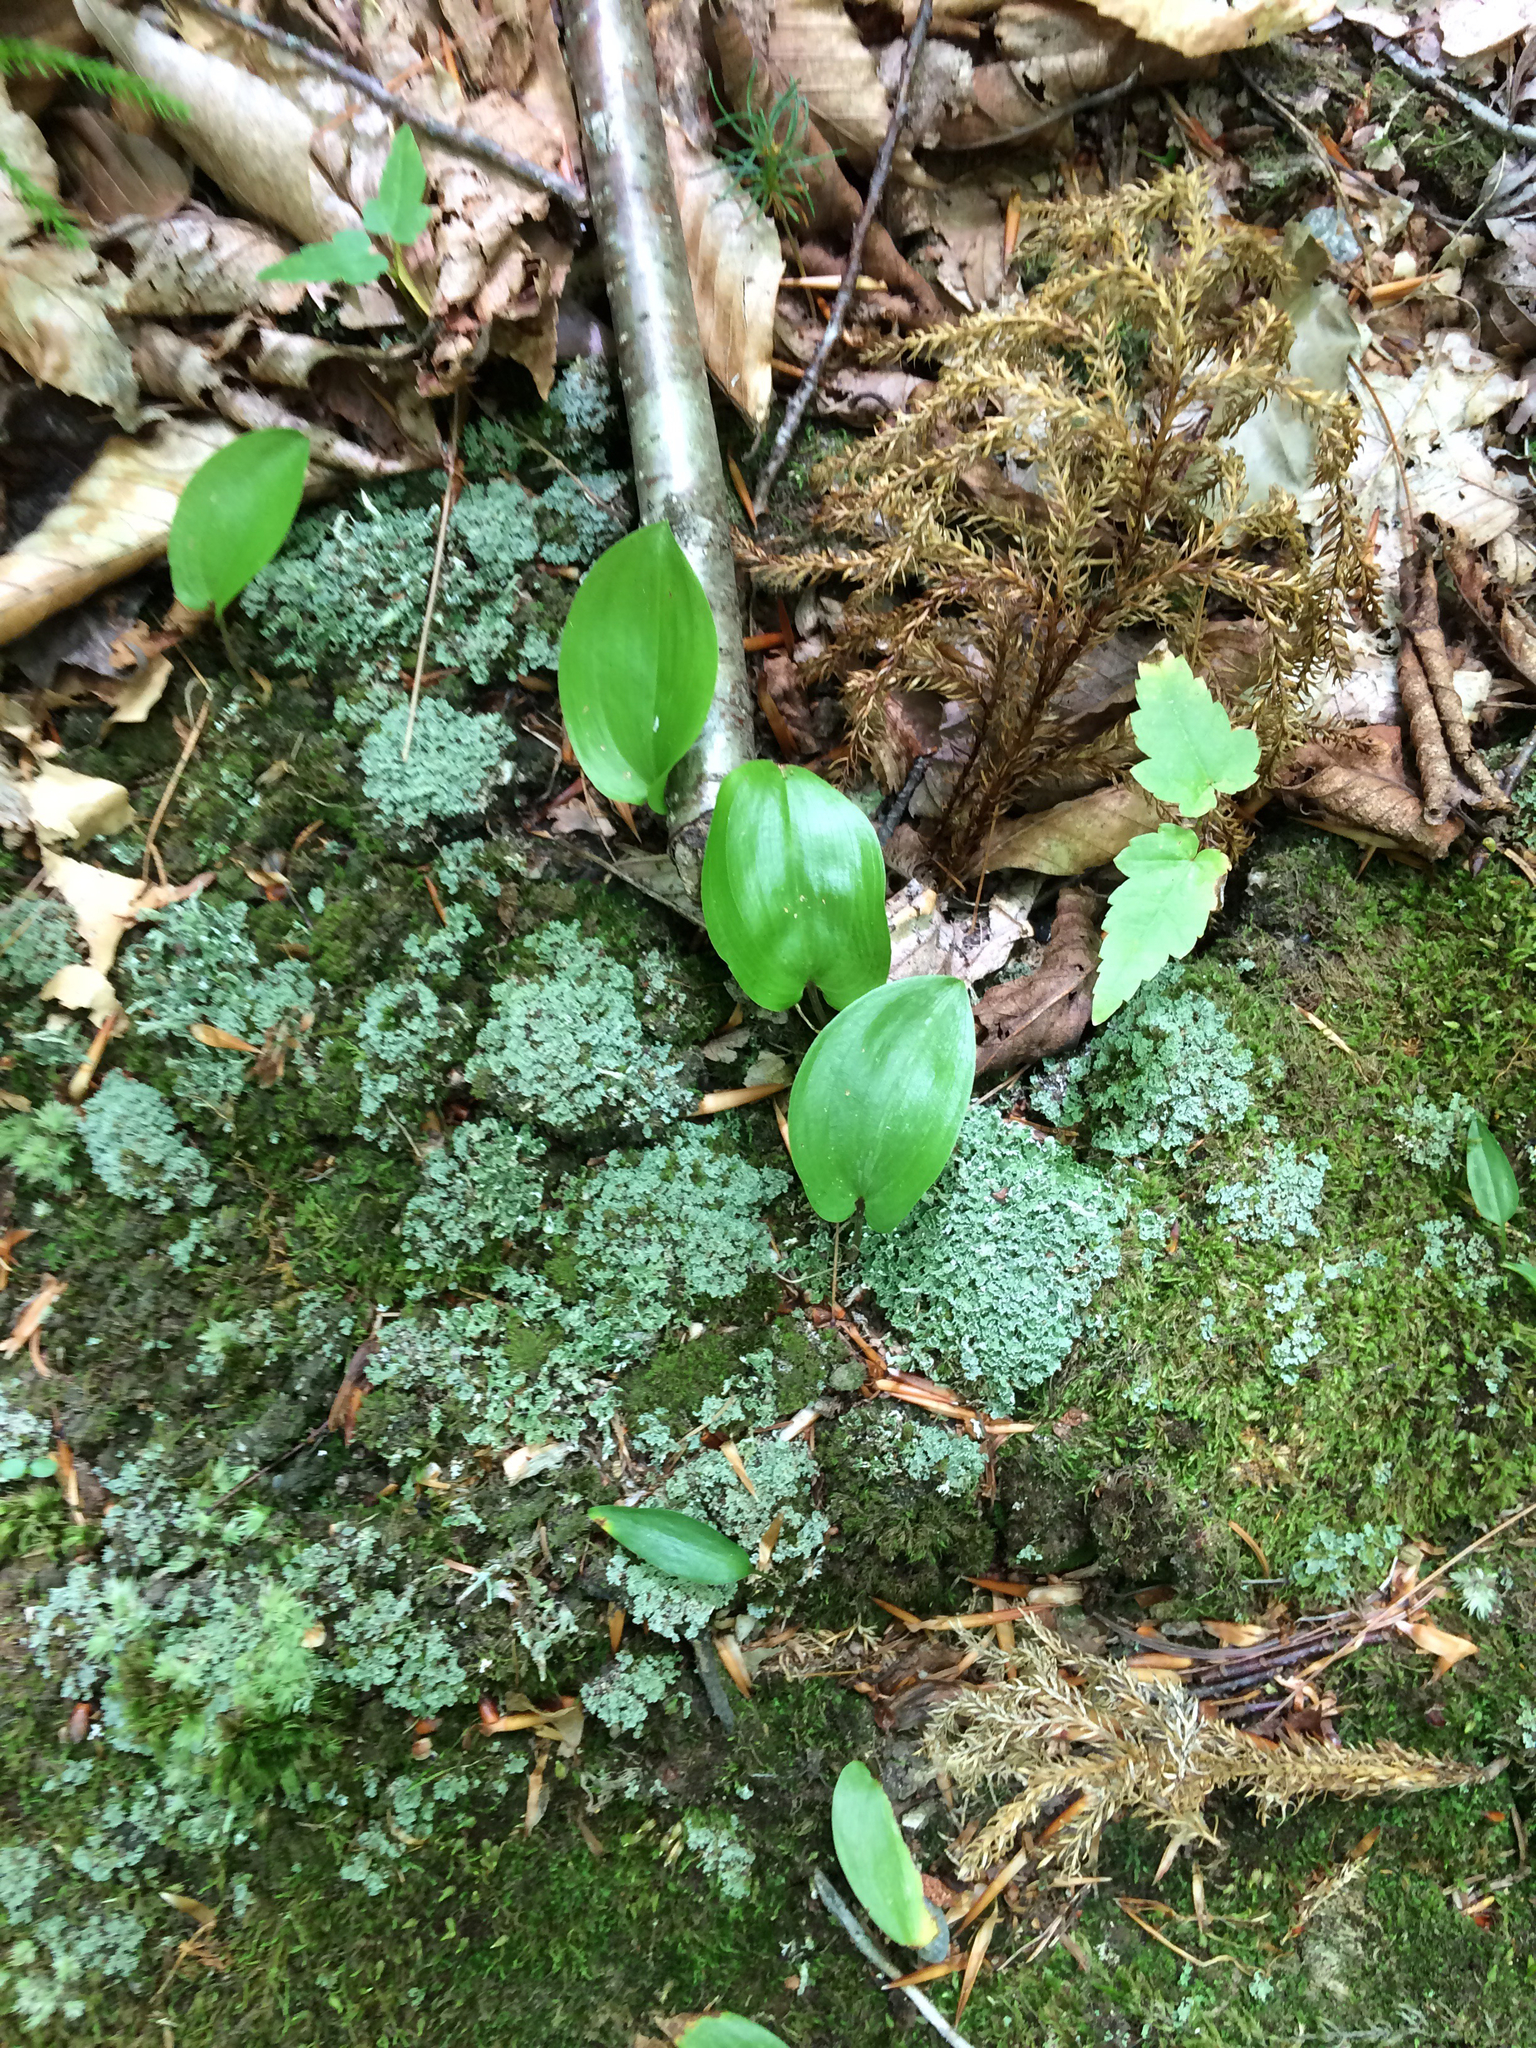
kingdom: Plantae
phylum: Tracheophyta
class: Liliopsida
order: Asparagales
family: Asparagaceae
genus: Maianthemum
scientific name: Maianthemum canadense
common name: False lily-of-the-valley
